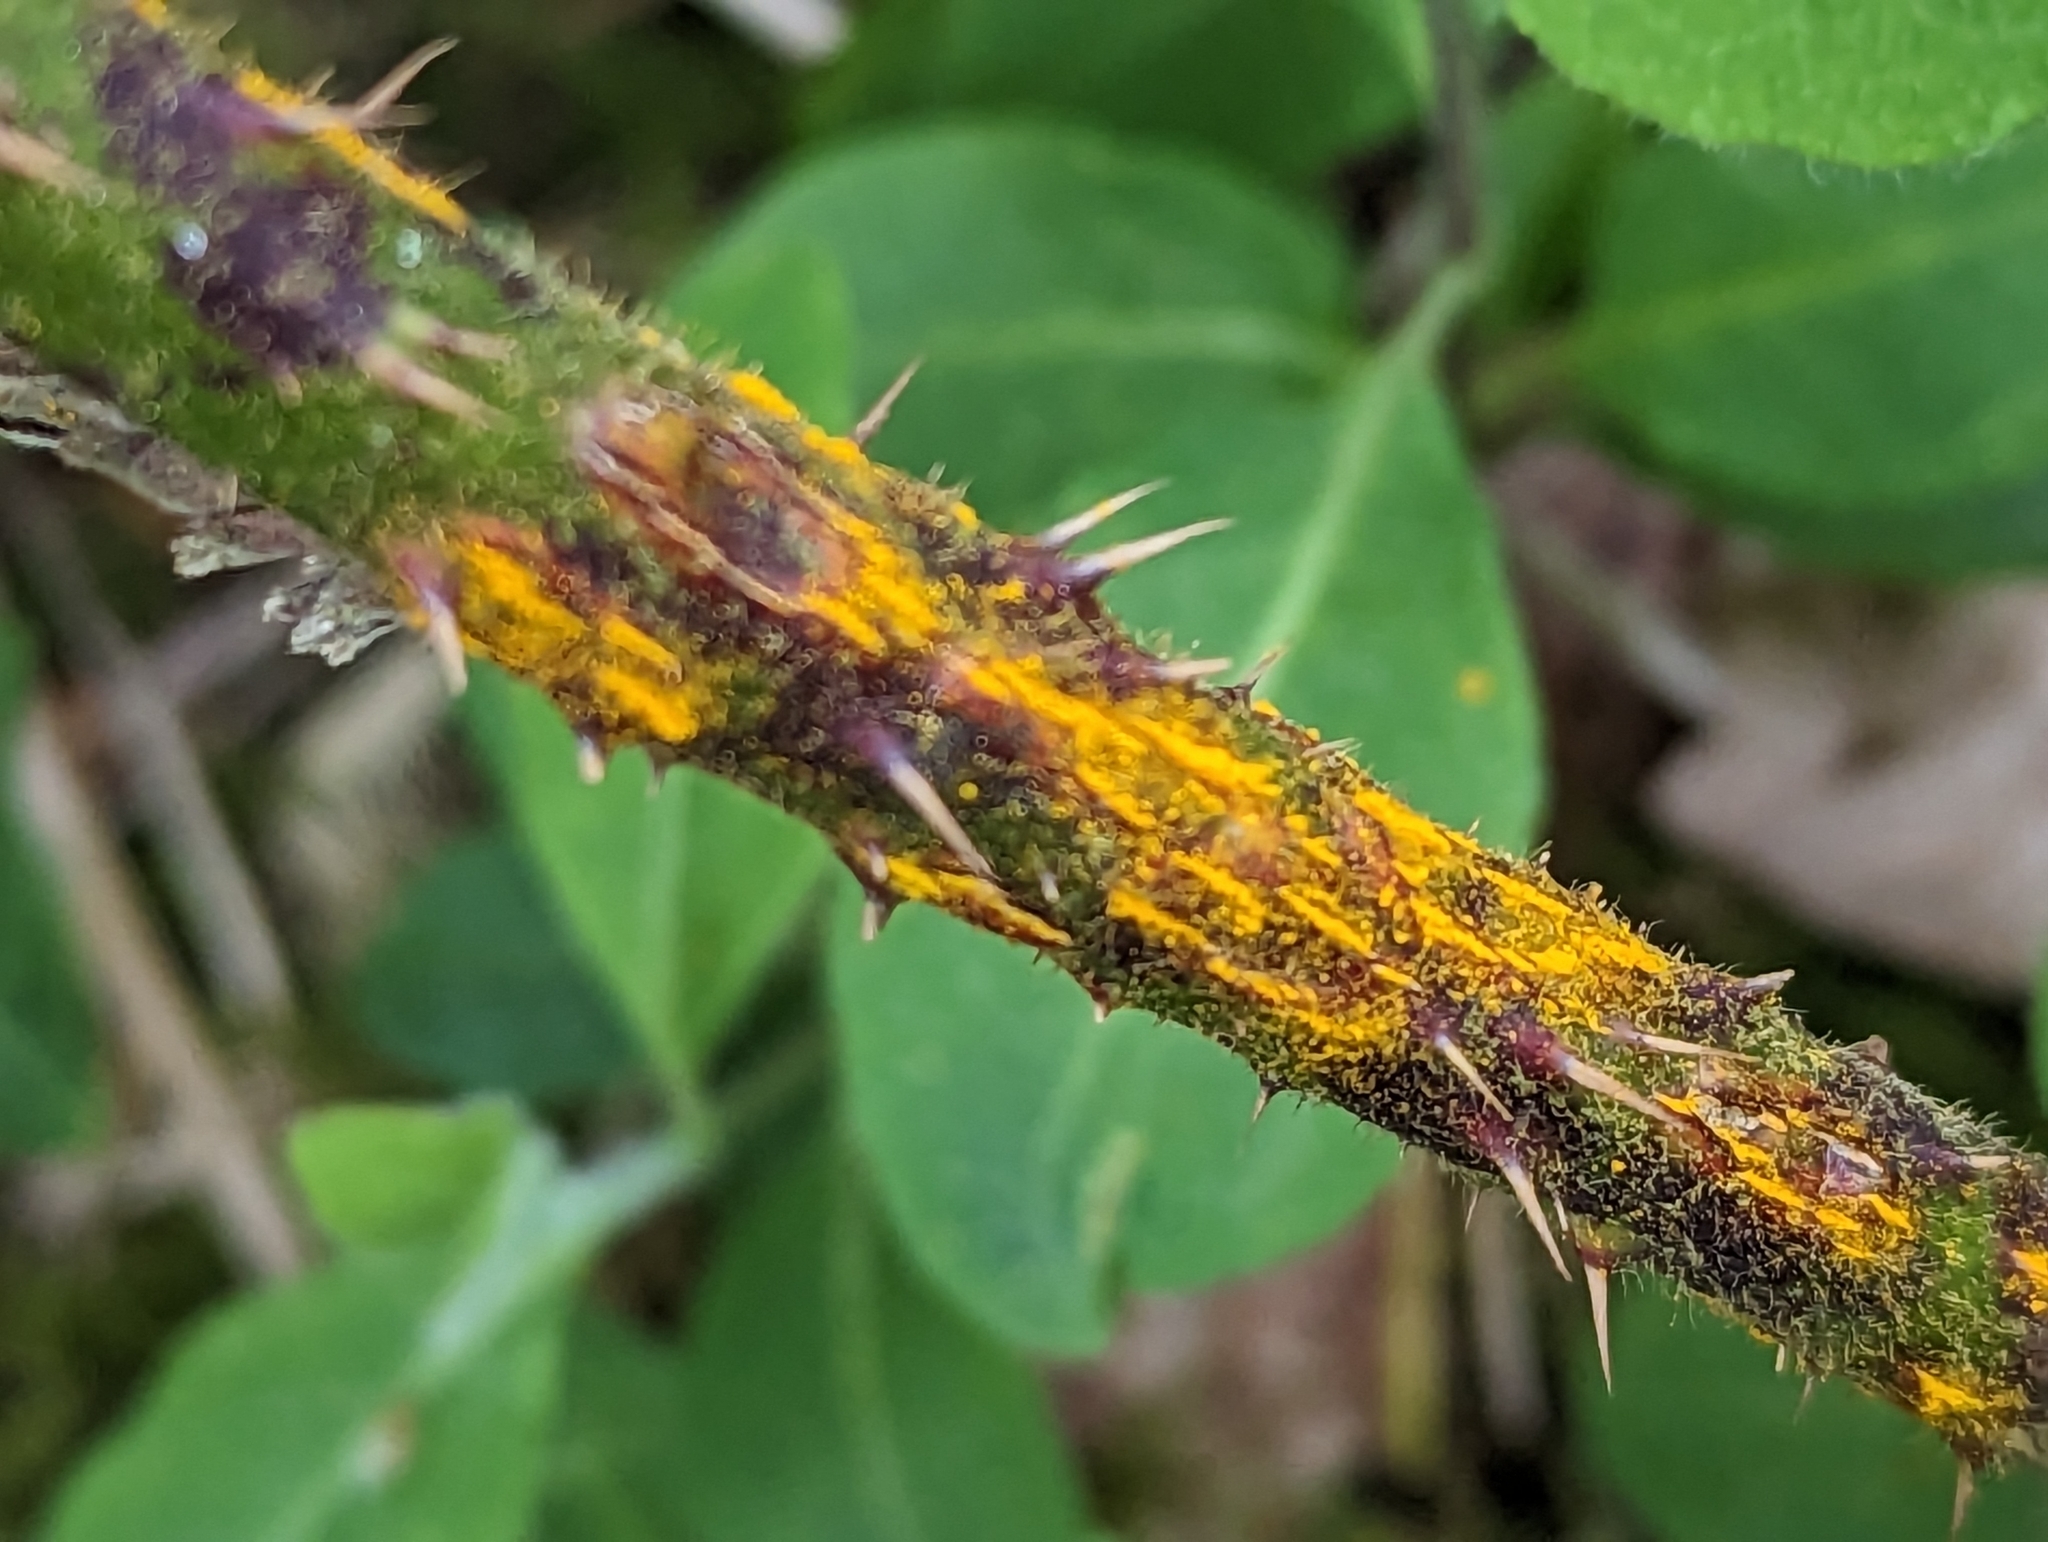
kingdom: Fungi
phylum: Basidiomycota
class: Pucciniomycetes
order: Pucciniales
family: Phragmidiaceae
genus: Kuehneola
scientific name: Kuehneola uredinis
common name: Bramble stem rust
